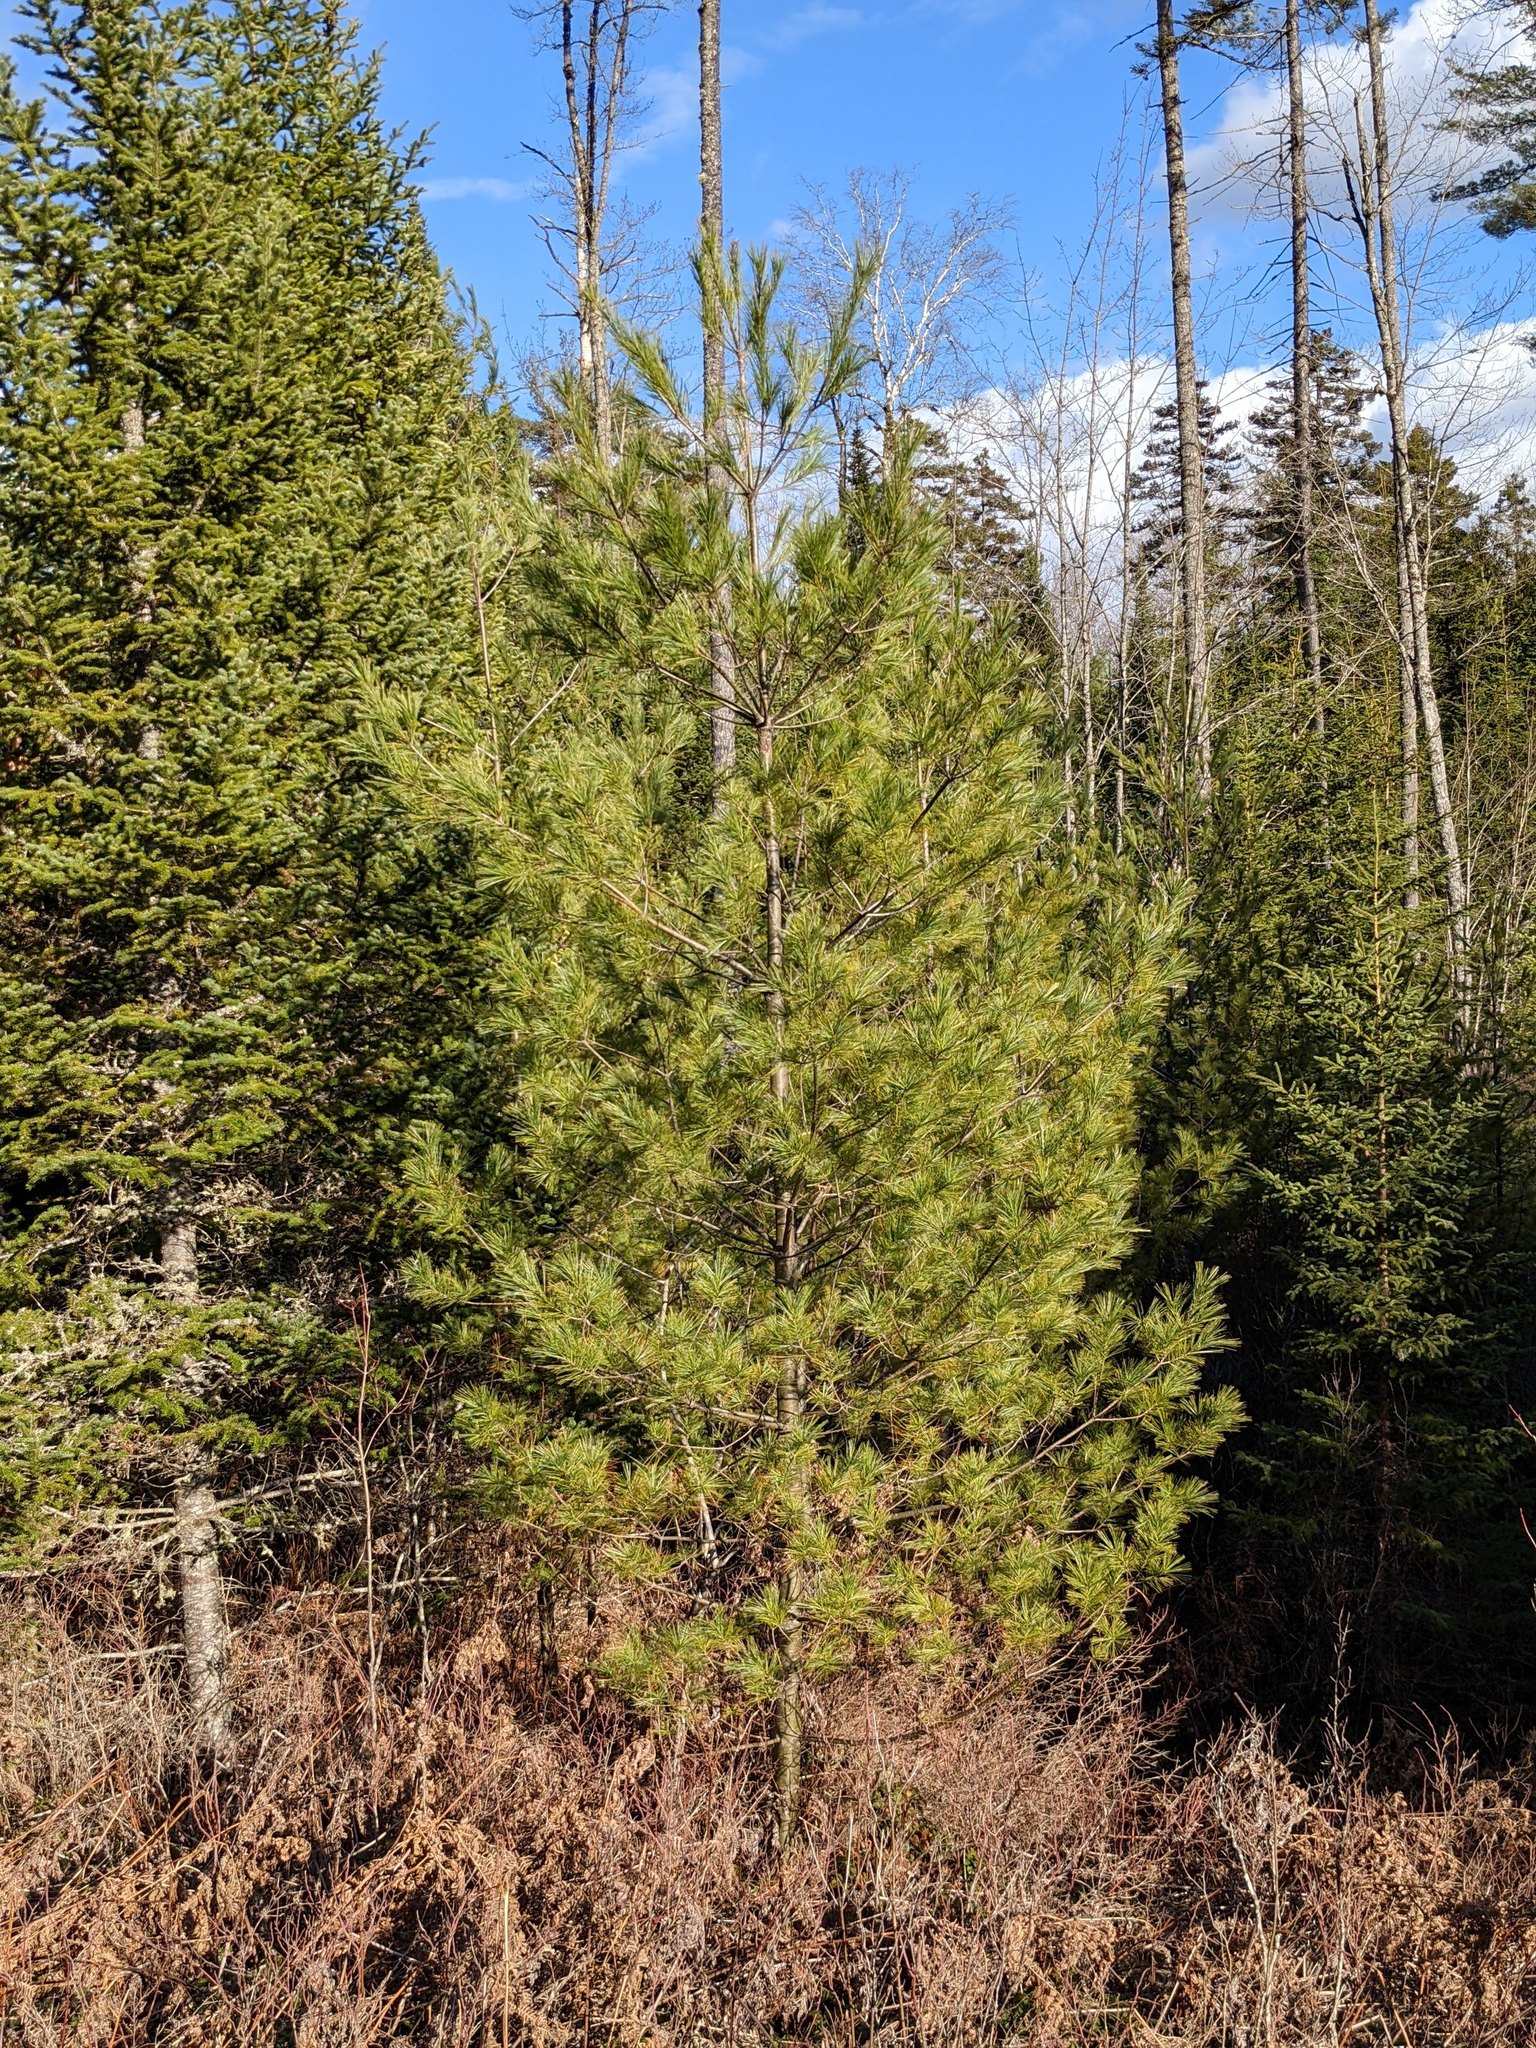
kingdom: Plantae
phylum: Tracheophyta
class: Pinopsida
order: Pinales
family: Pinaceae
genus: Pinus
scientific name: Pinus strobus
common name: Weymouth pine
